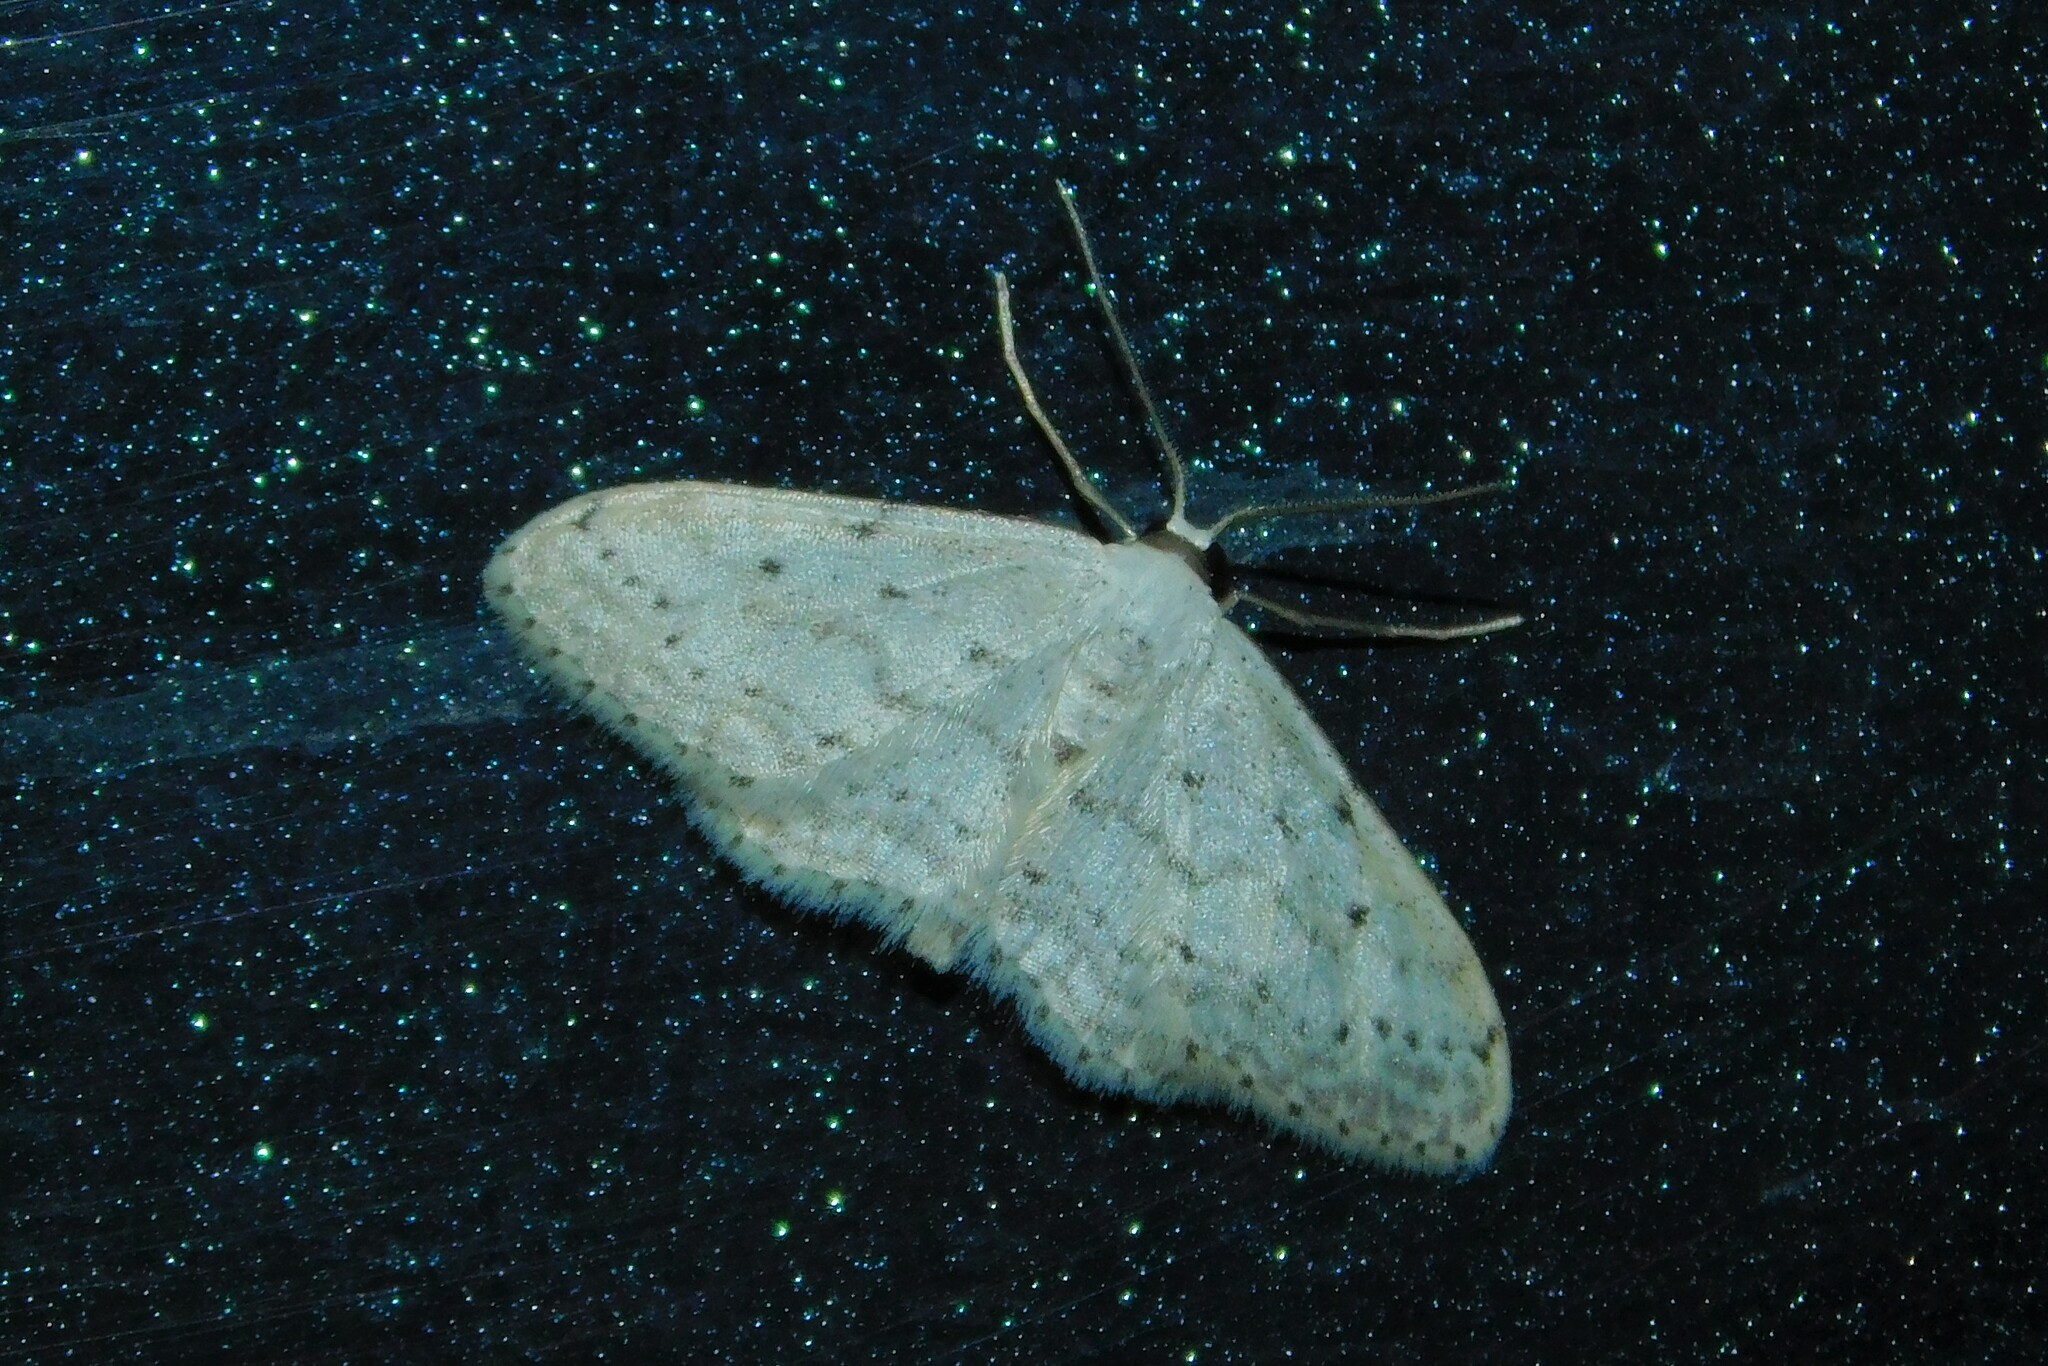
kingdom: Animalia
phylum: Arthropoda
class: Insecta
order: Lepidoptera
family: Geometridae
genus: Idaea
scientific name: Idaea seriata
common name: Small dusty wave
